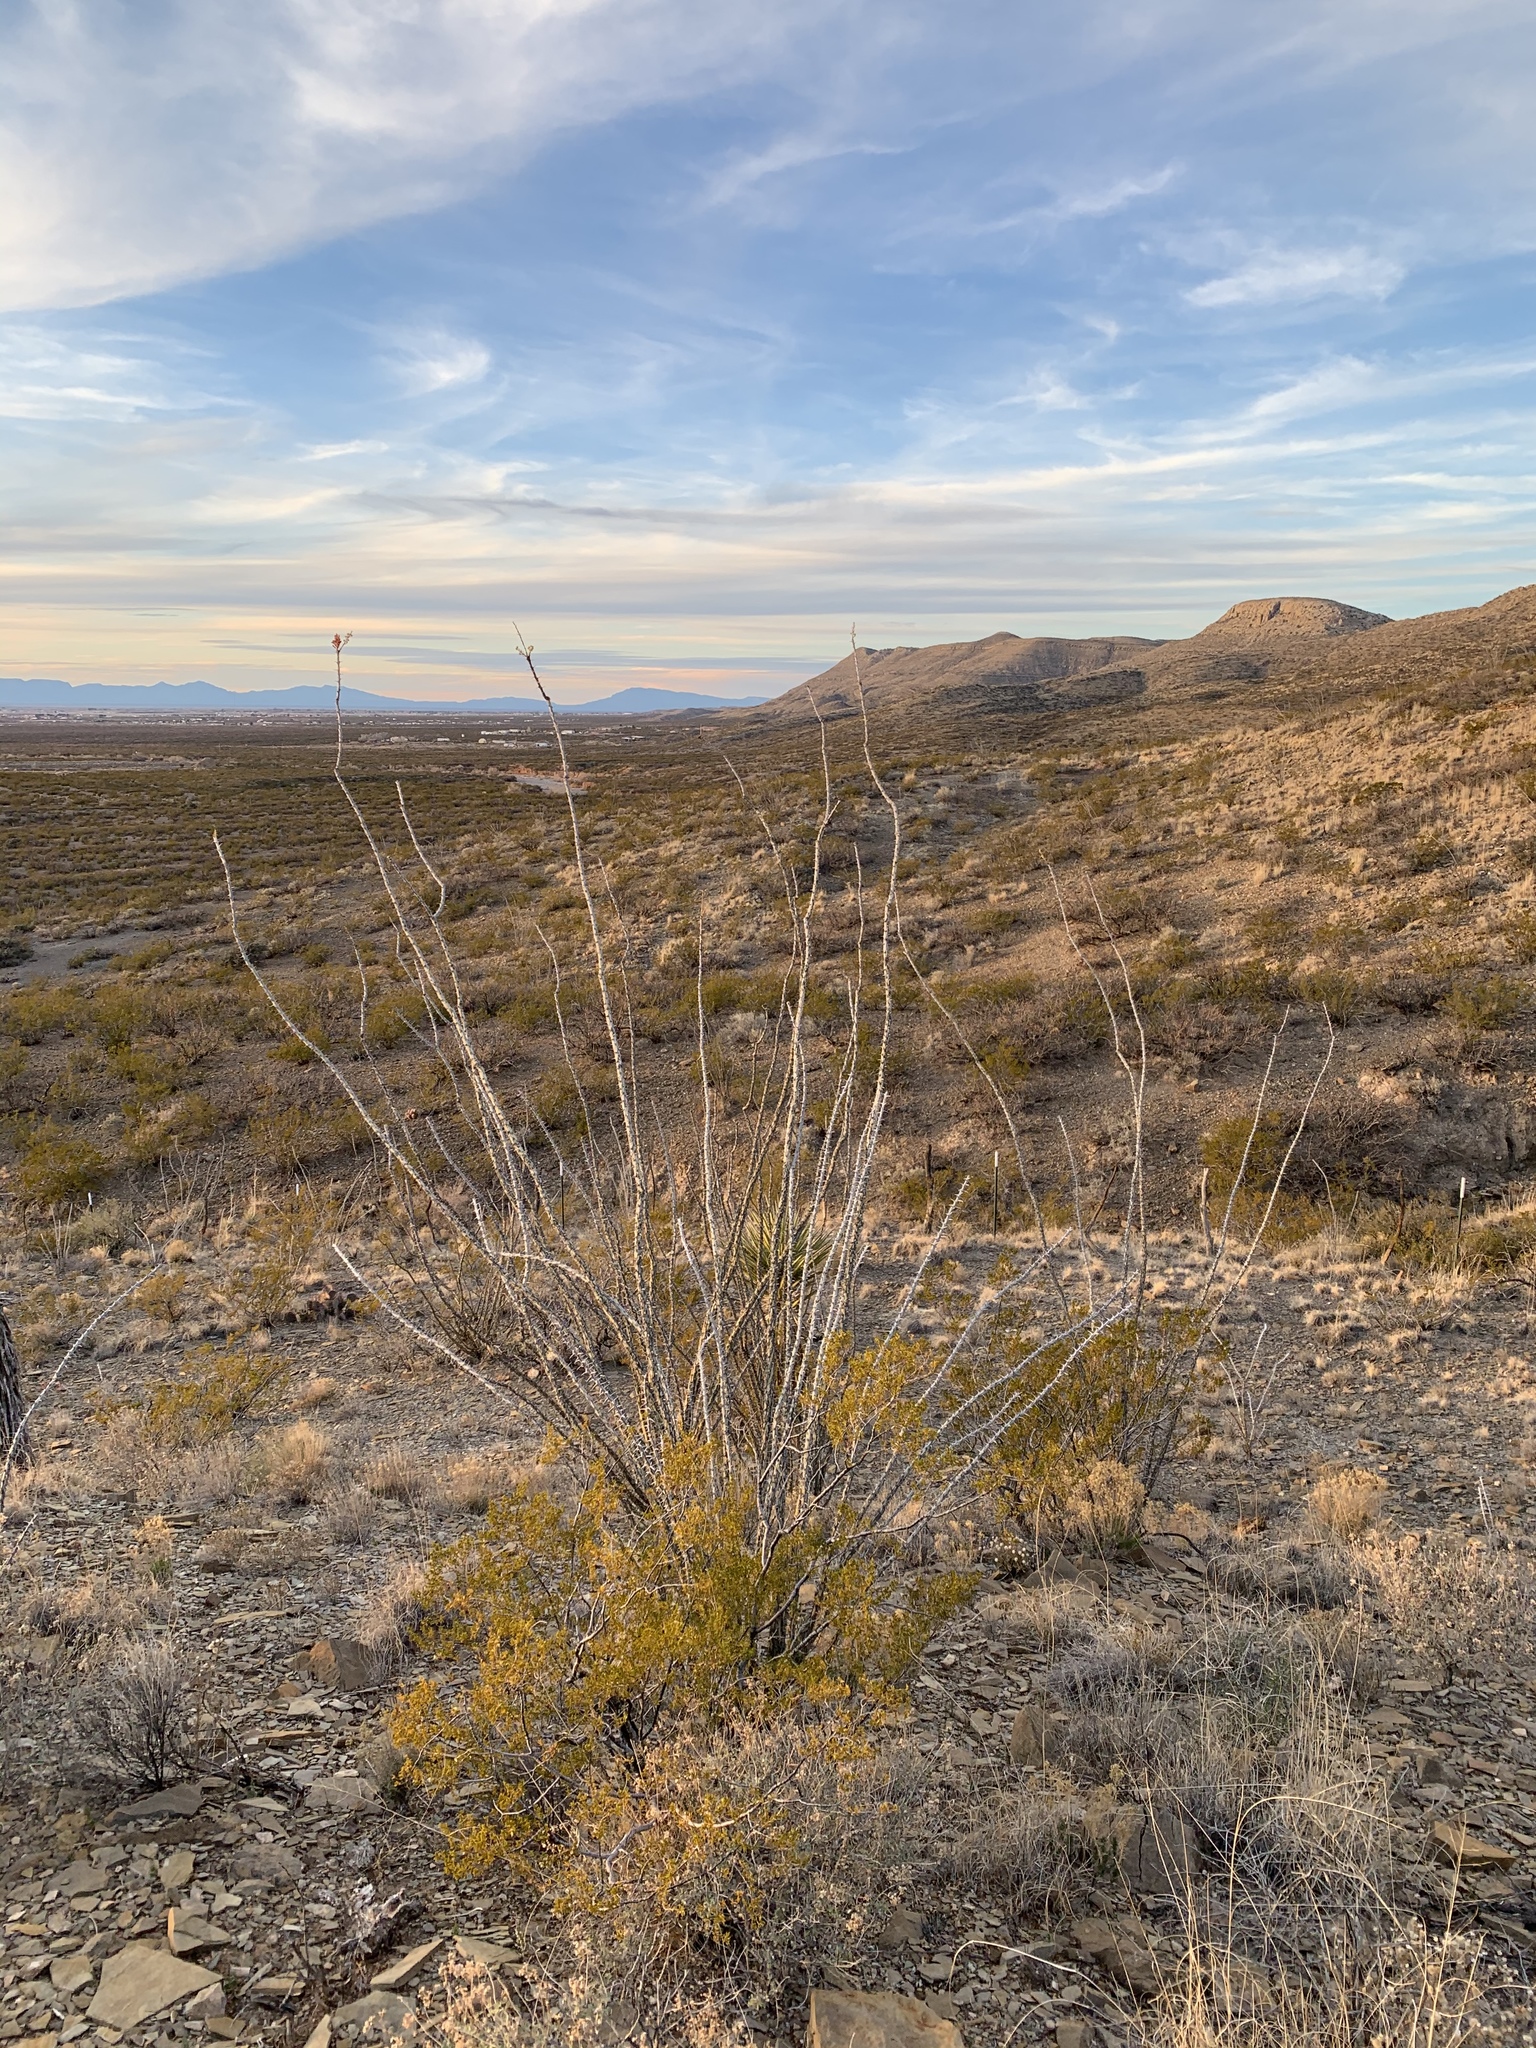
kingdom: Plantae
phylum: Tracheophyta
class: Magnoliopsida
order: Ericales
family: Fouquieriaceae
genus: Fouquieria
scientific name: Fouquieria splendens
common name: Vine-cactus
